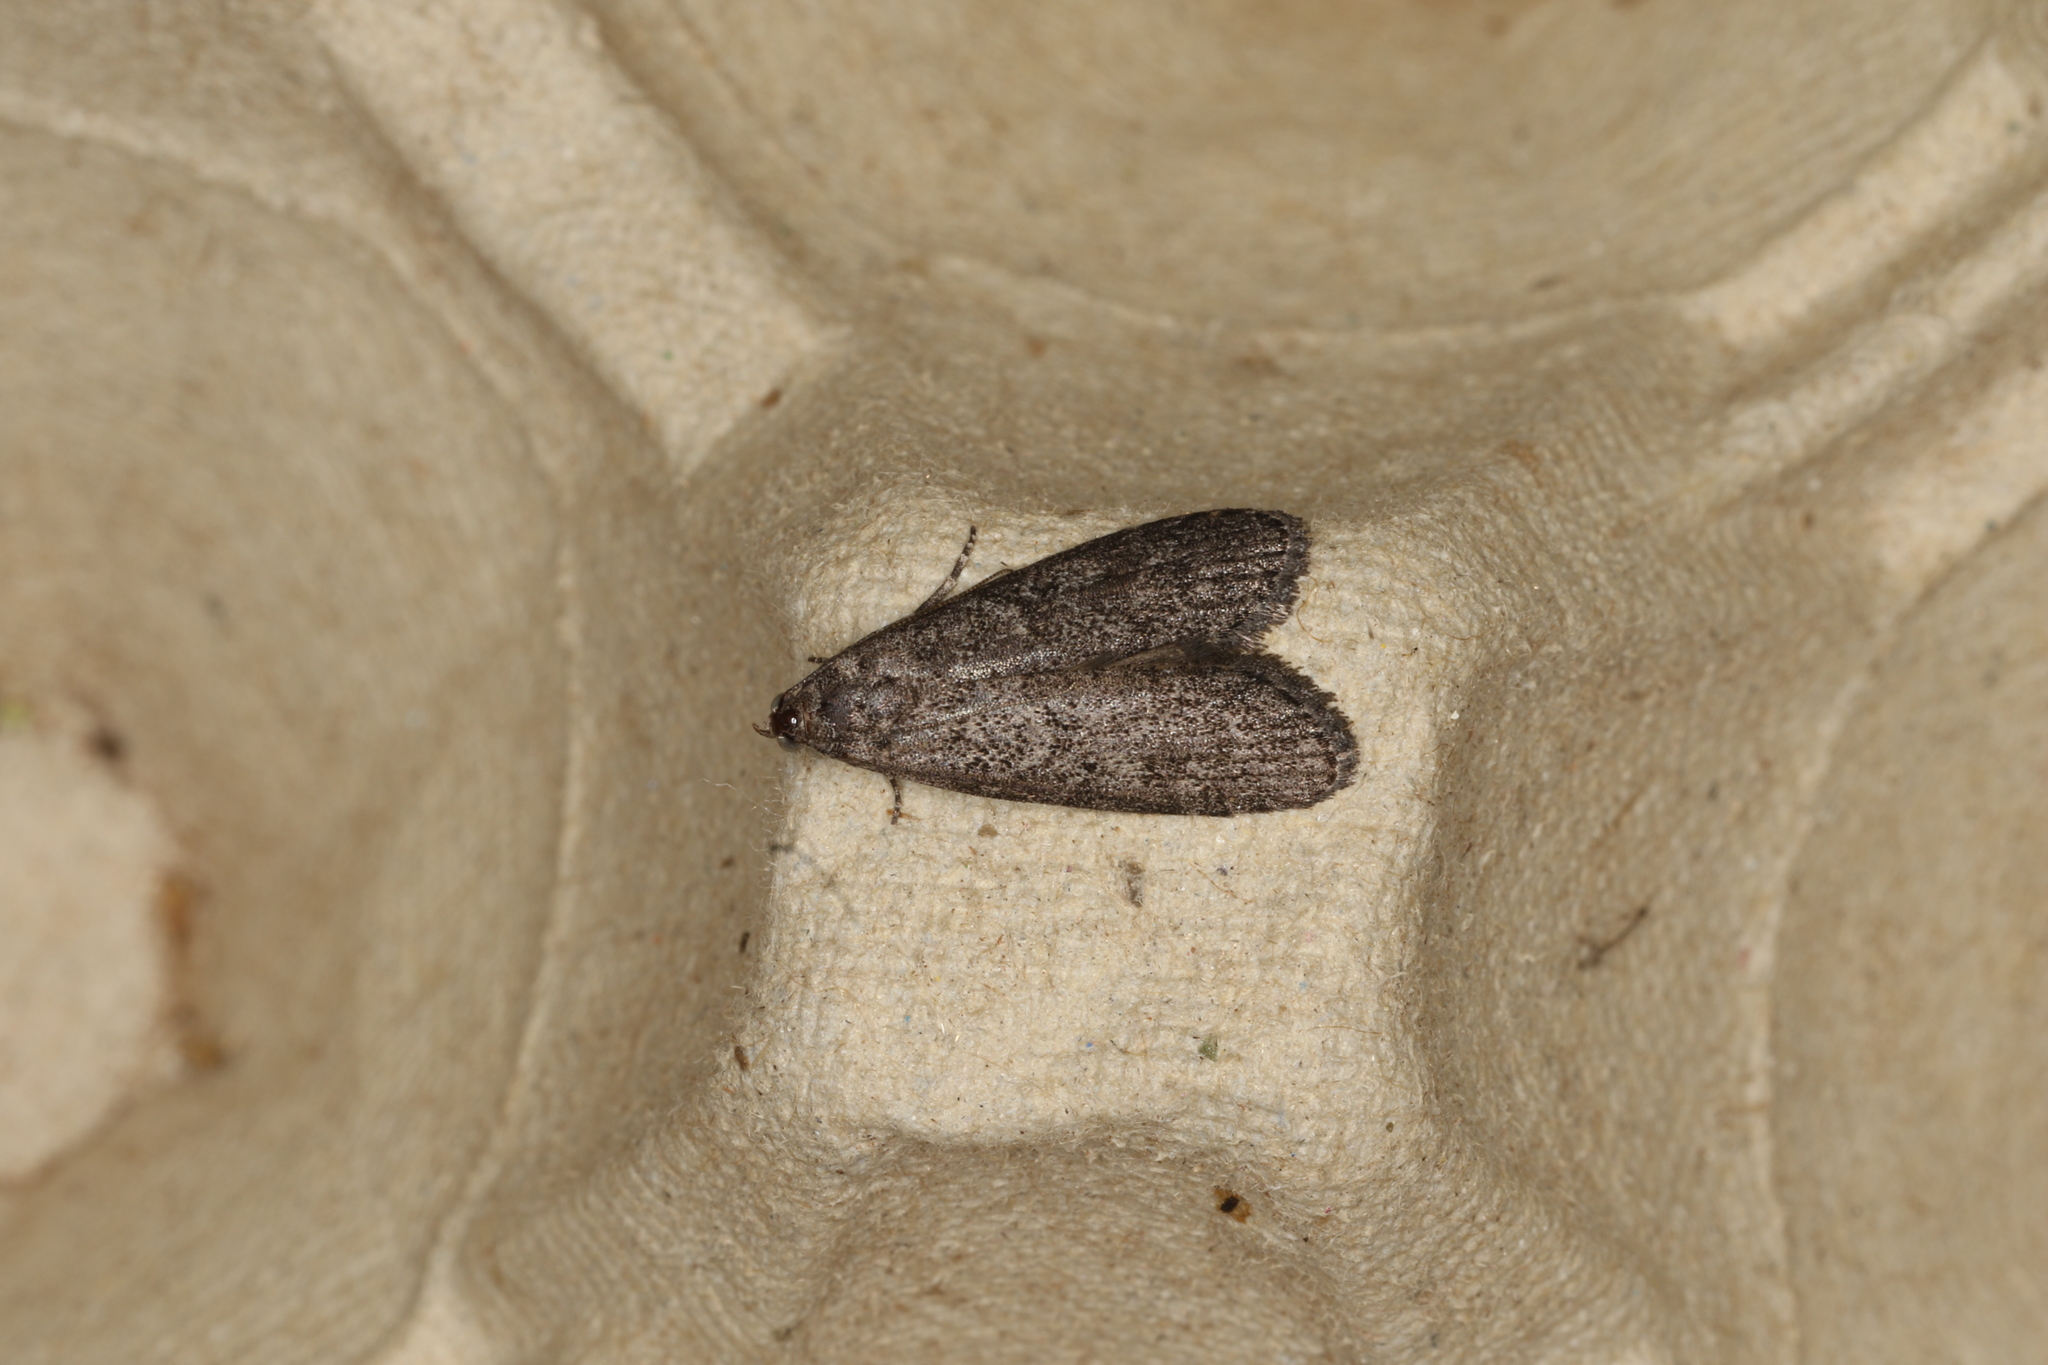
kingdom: Animalia
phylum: Arthropoda
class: Insecta
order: Lepidoptera
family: Pyralidae
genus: Heteromicta
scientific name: Heteromicta pachytera
